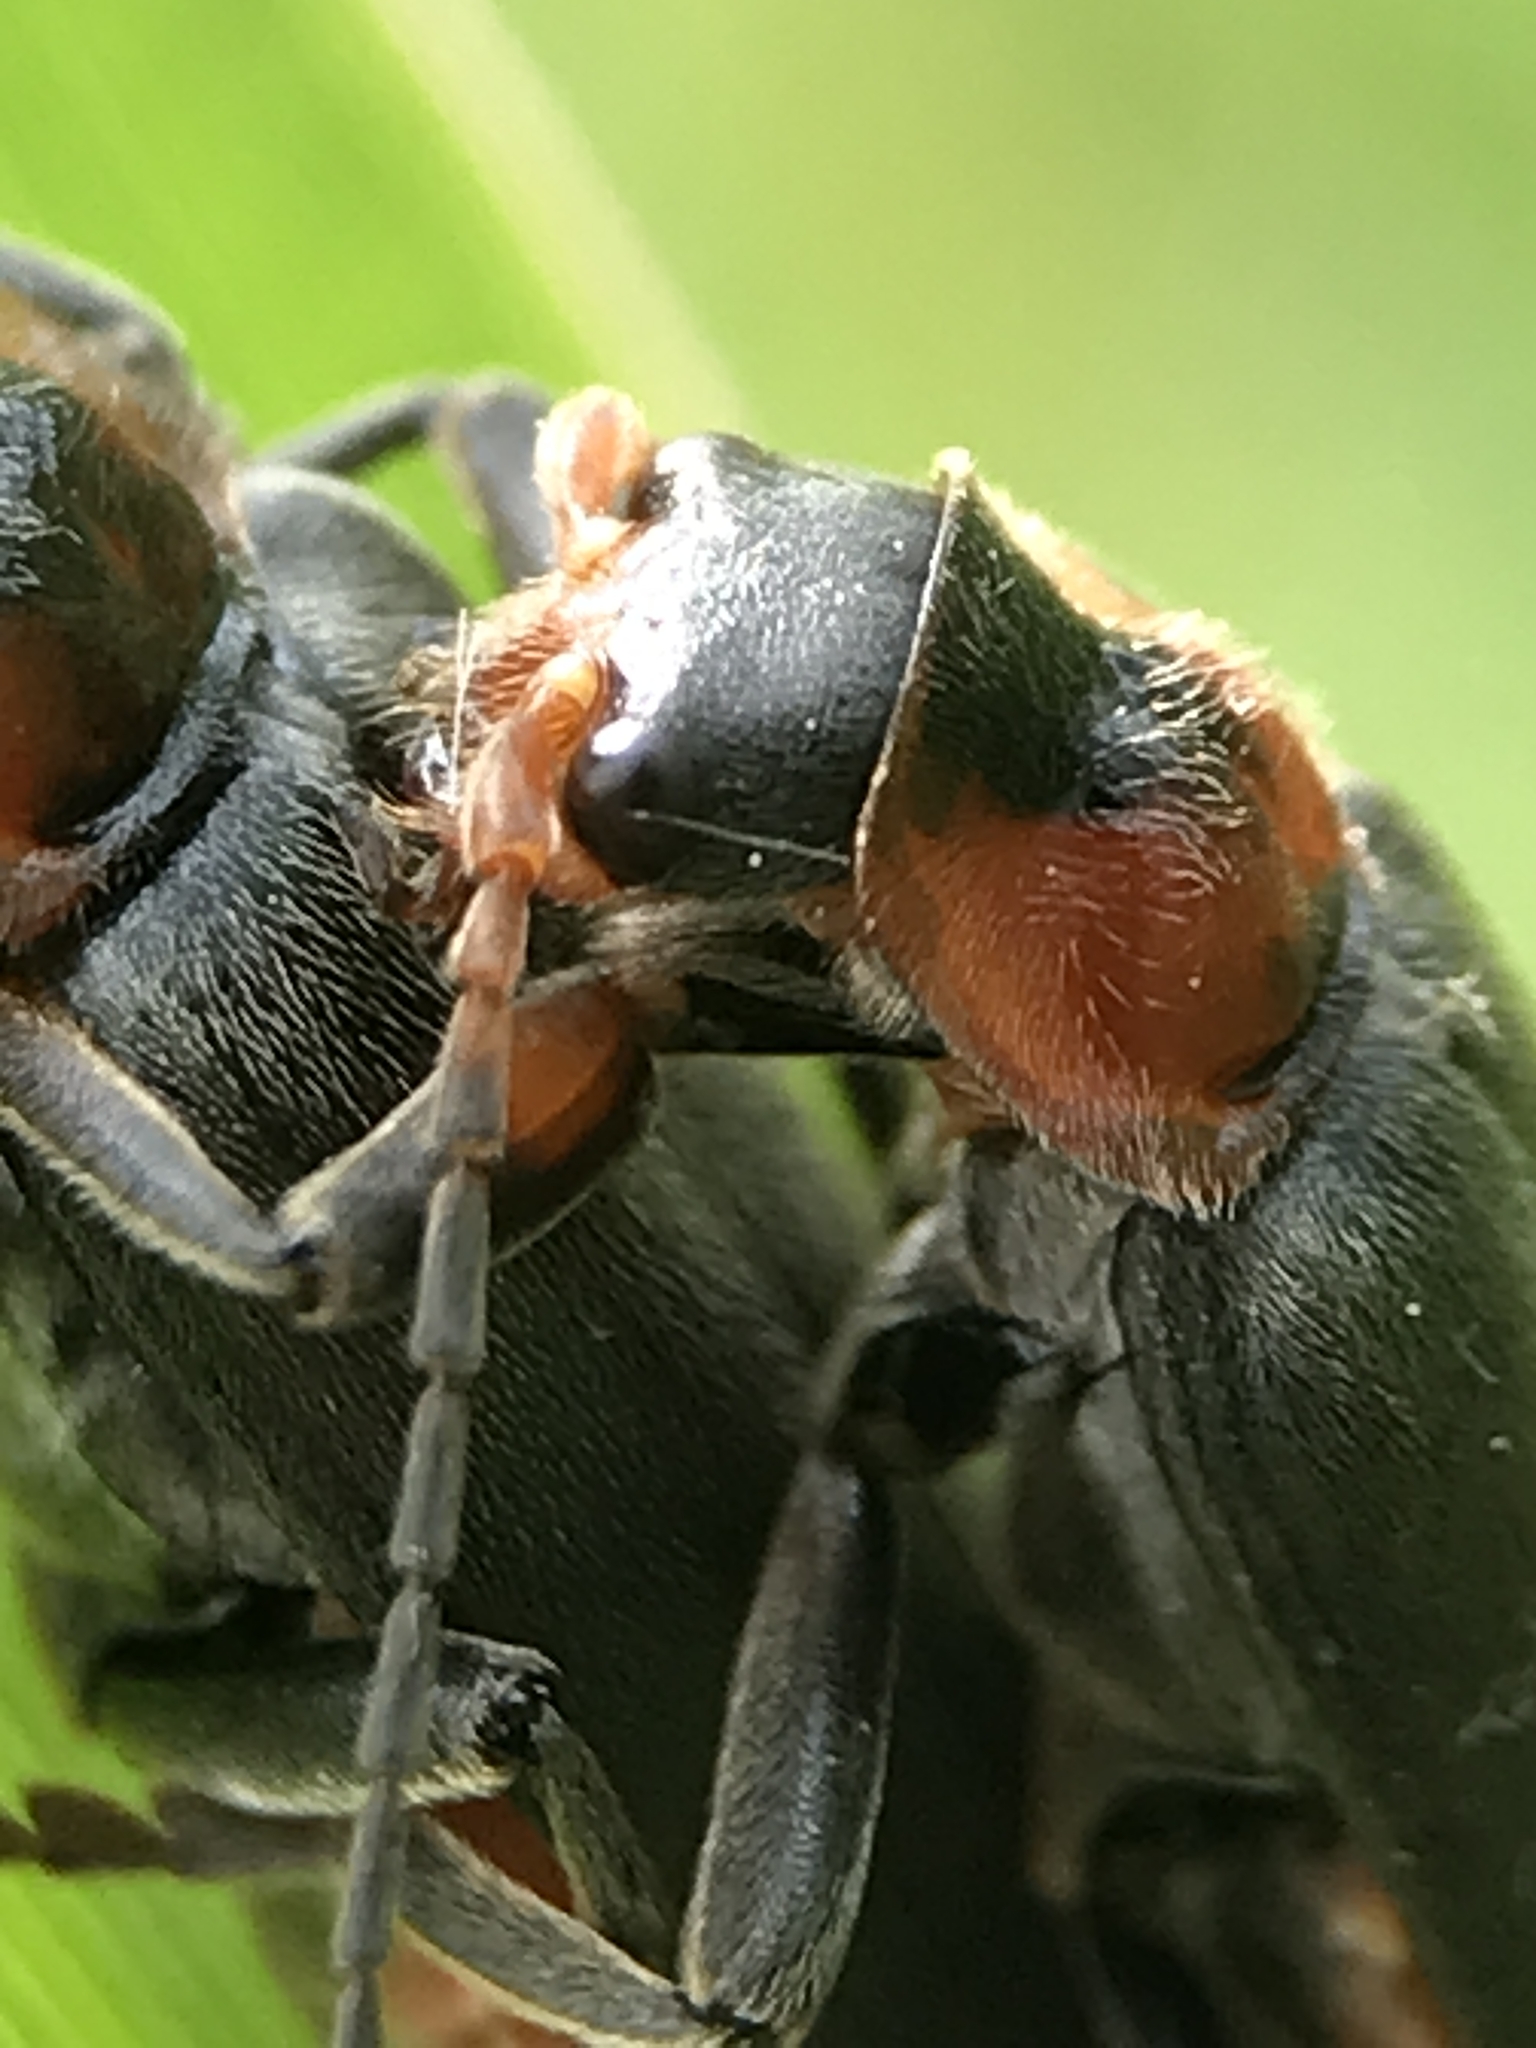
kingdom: Animalia
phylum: Arthropoda
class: Insecta
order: Coleoptera
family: Cantharidae
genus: Cantharis
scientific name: Cantharis fusca
